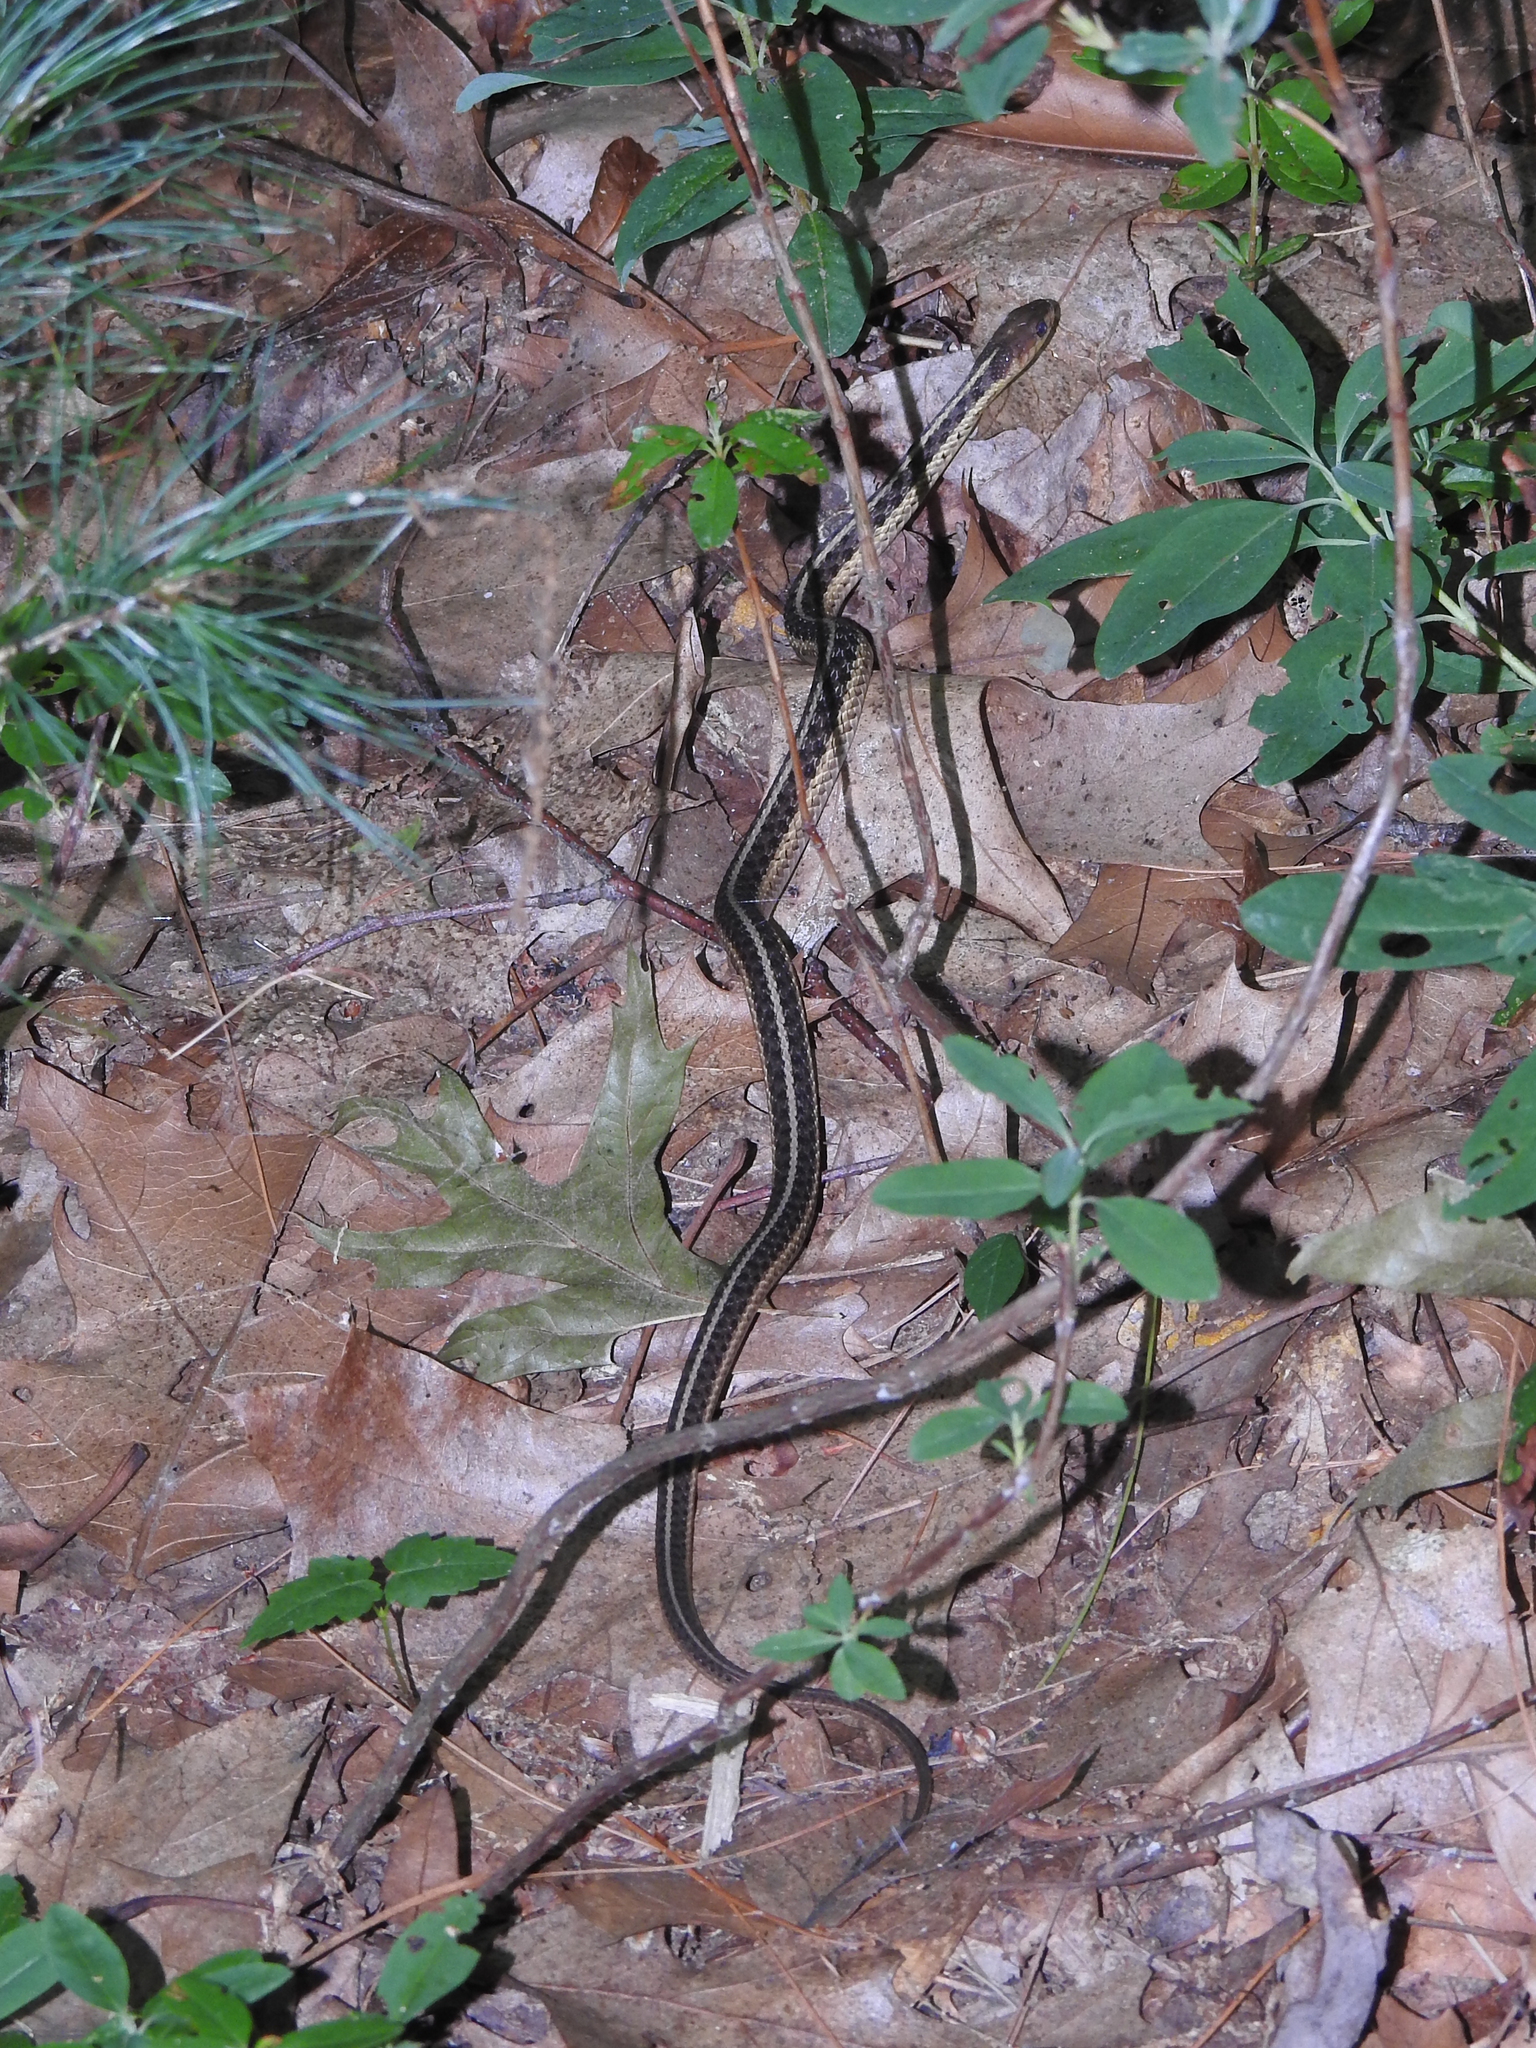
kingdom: Animalia
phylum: Chordata
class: Squamata
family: Colubridae
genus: Thamnophis
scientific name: Thamnophis sirtalis
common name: Common garter snake
